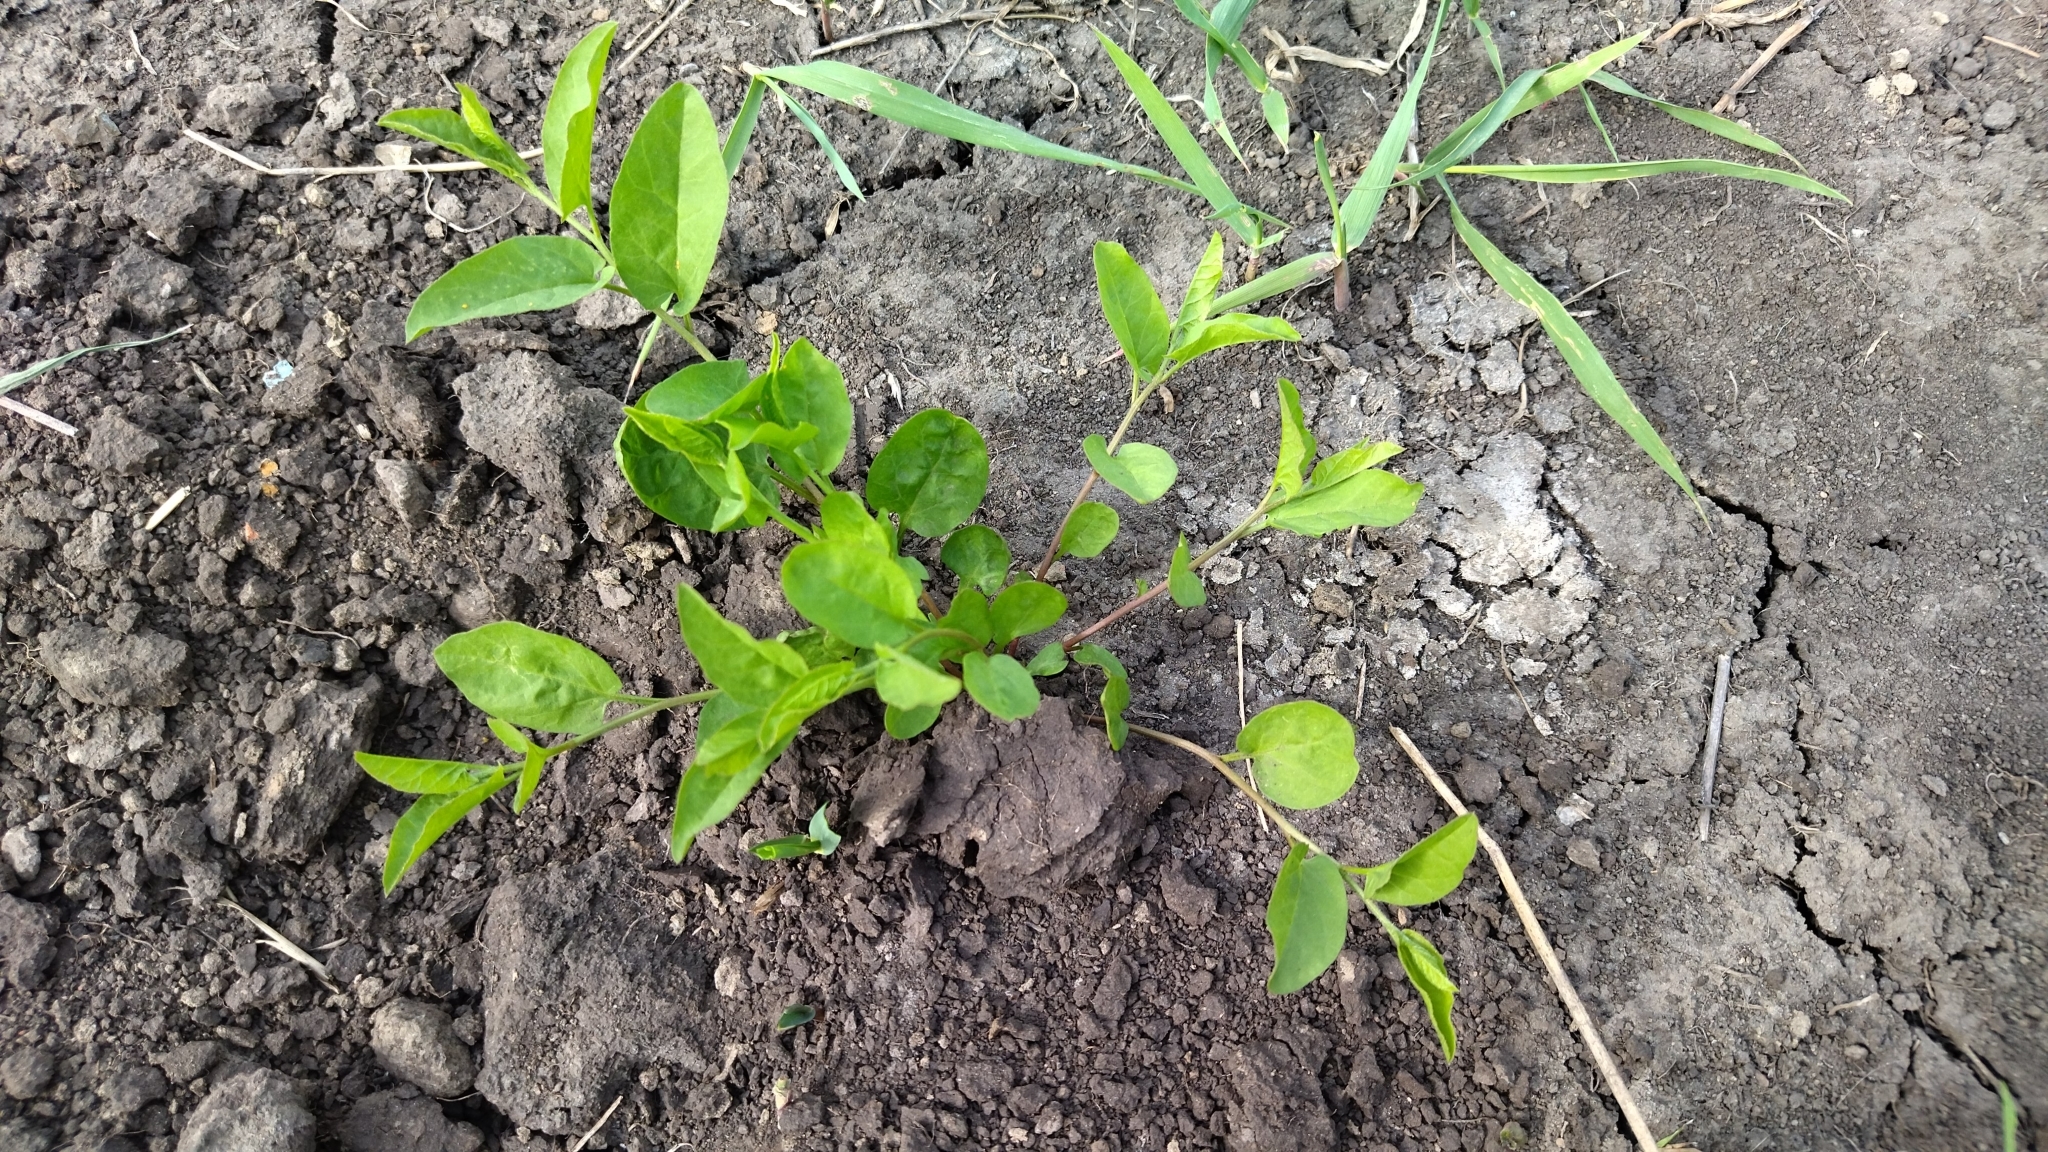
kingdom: Plantae
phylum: Tracheophyta
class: Magnoliopsida
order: Solanales
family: Convolvulaceae
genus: Convolvulus
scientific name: Convolvulus arvensis
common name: Field bindweed
